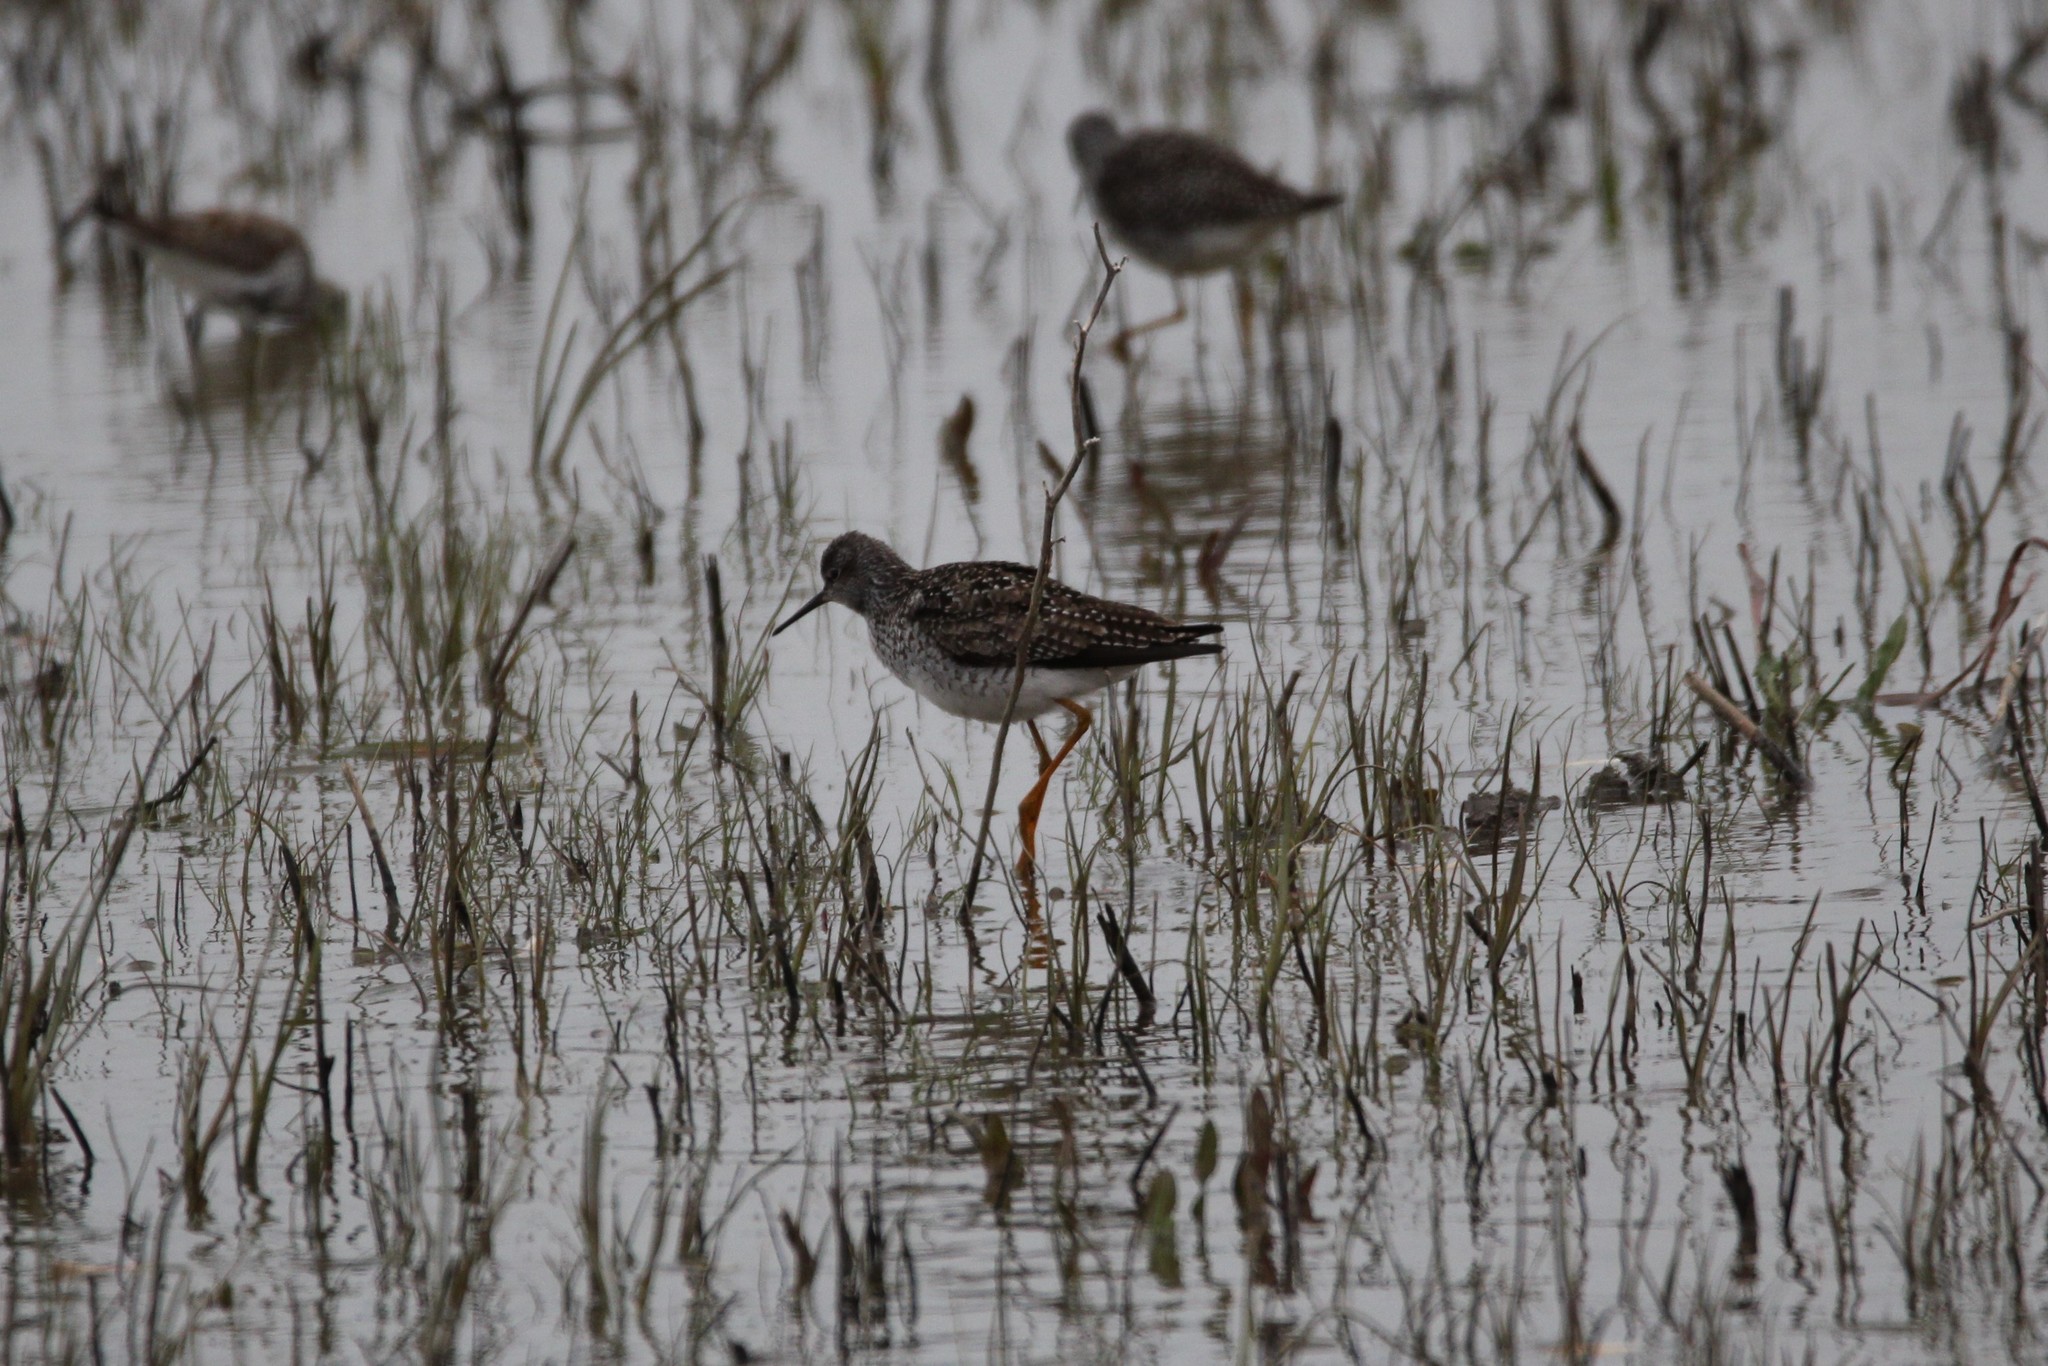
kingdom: Animalia
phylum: Chordata
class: Aves
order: Charadriiformes
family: Scolopacidae
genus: Tringa
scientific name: Tringa flavipes
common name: Lesser yellowlegs
